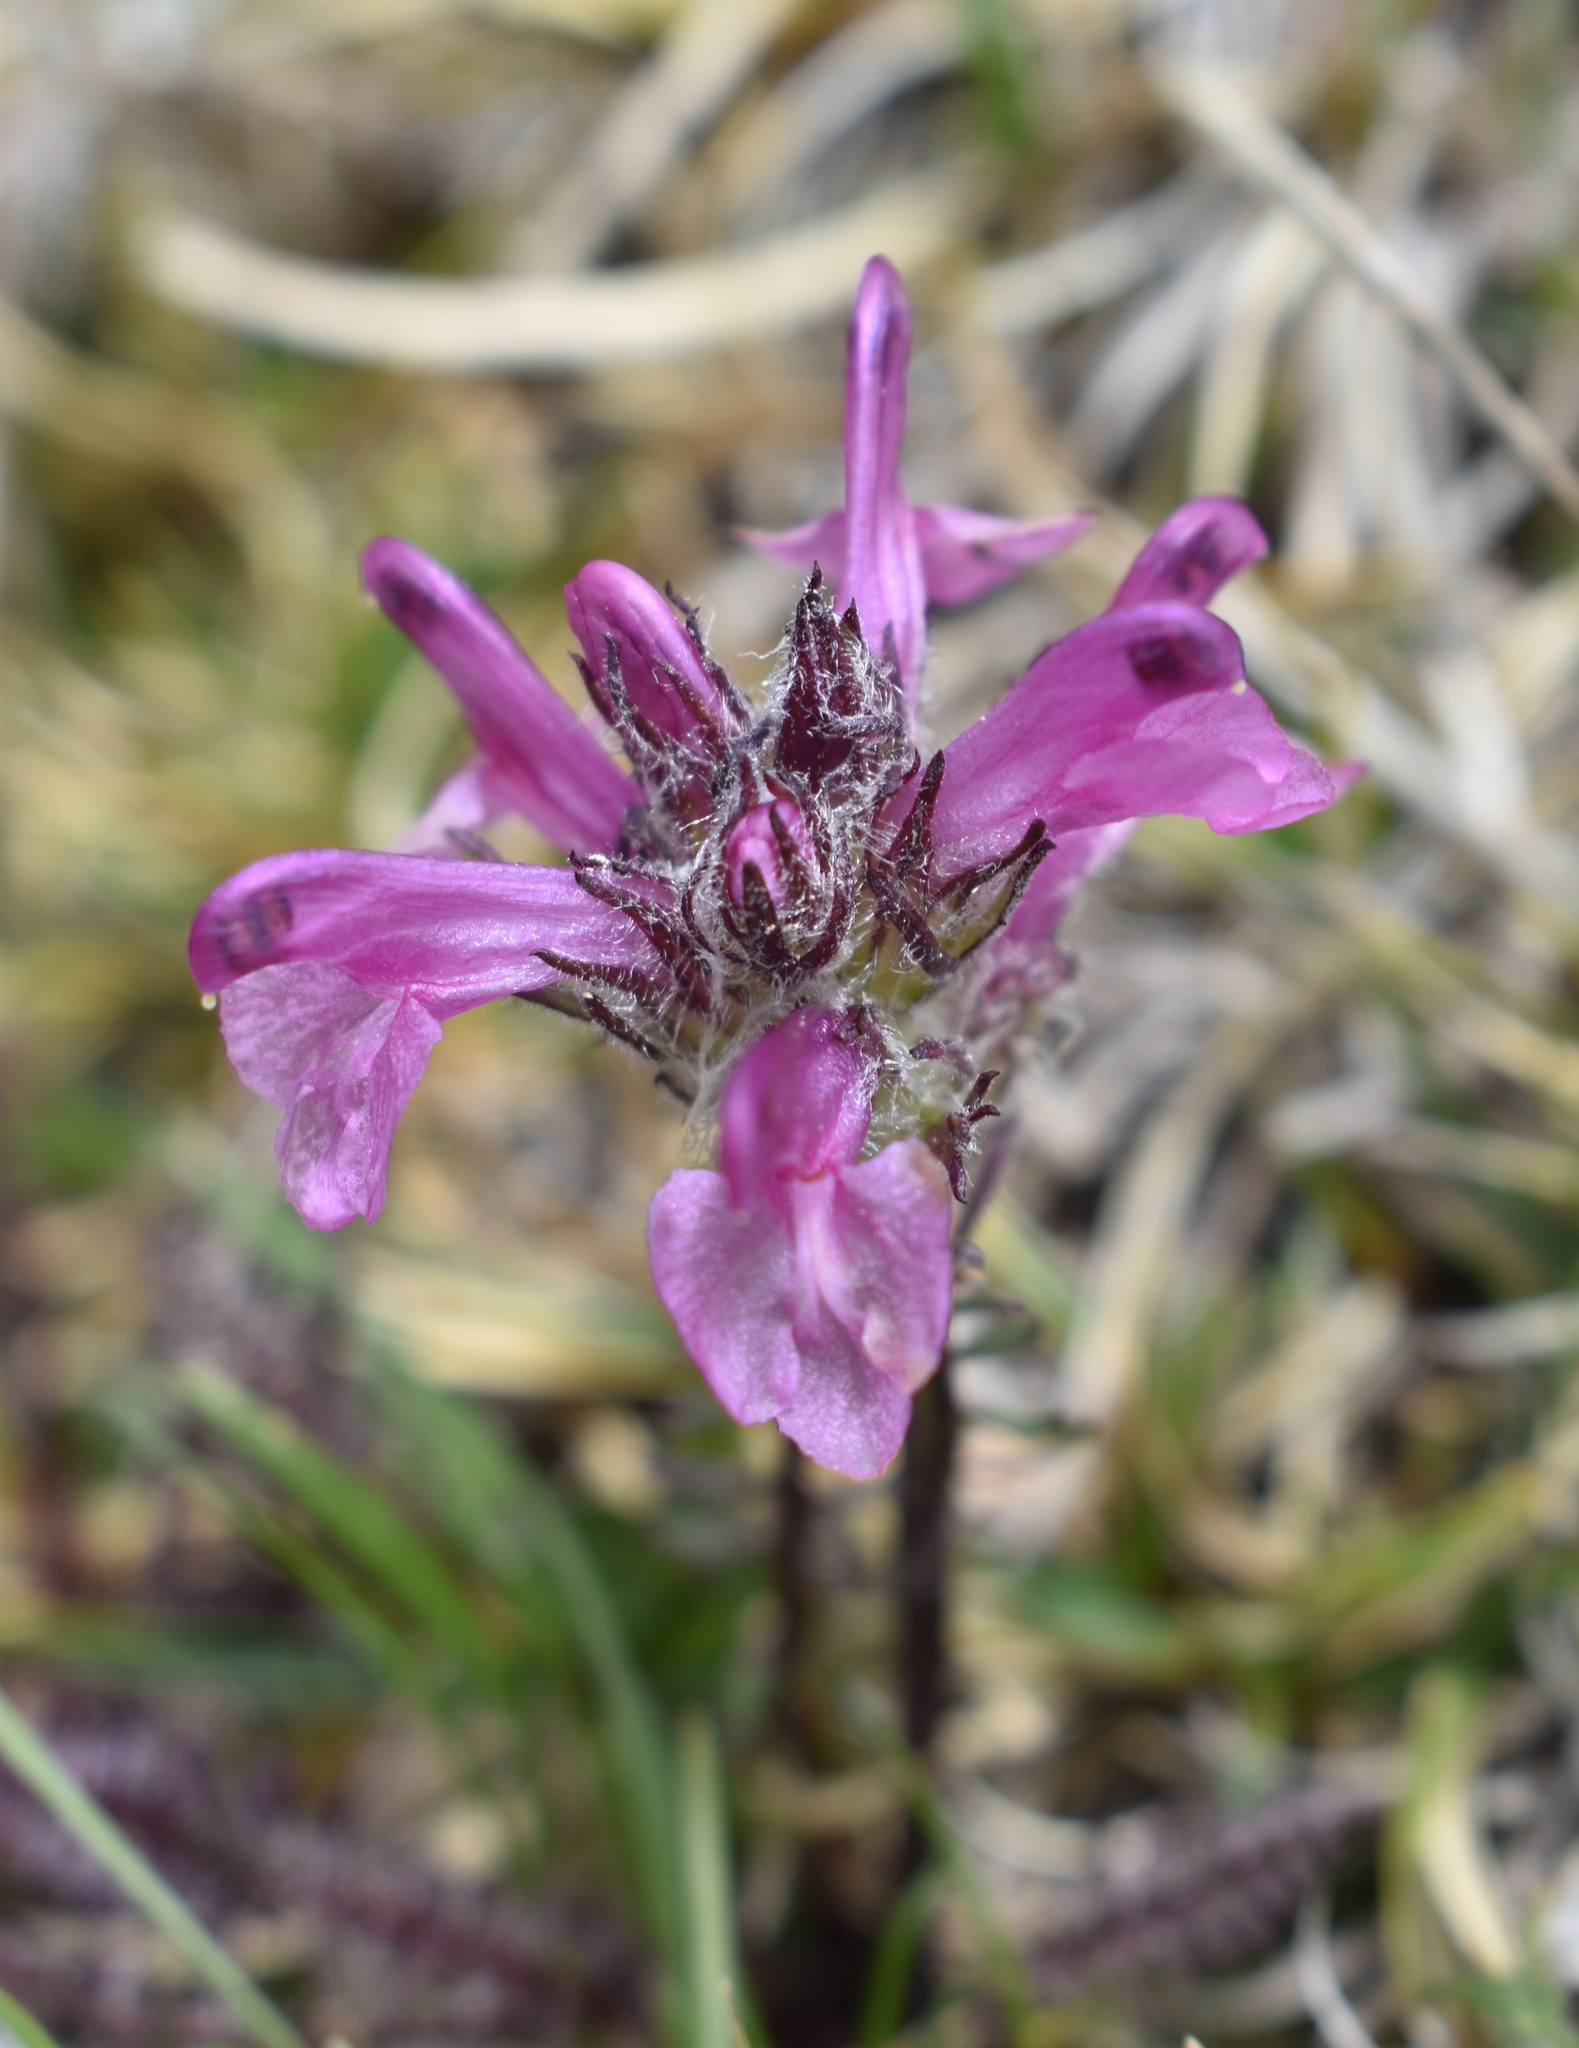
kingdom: Plantae
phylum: Tracheophyta
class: Magnoliopsida
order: Lamiales
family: Orobanchaceae
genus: Pedicularis
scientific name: Pedicularis rosea
